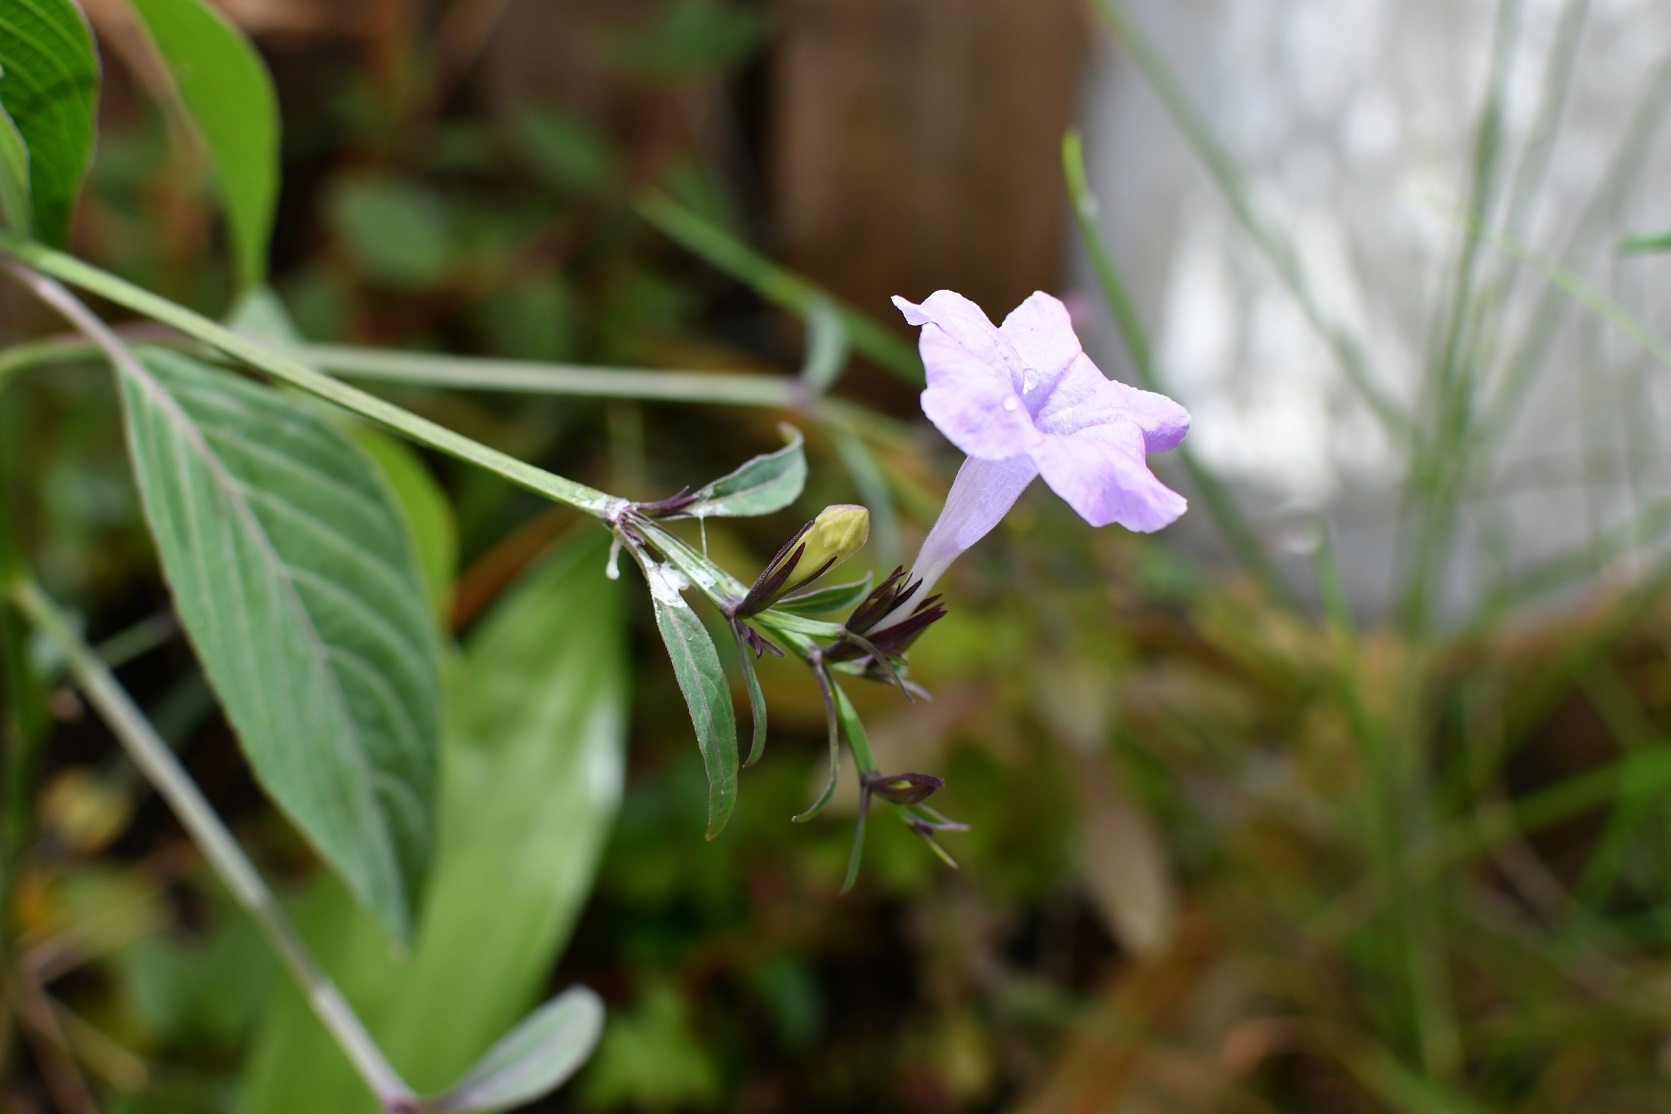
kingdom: Plantae
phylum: Tracheophyta
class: Magnoliopsida
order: Lamiales
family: Acanthaceae
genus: Ruellia
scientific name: Ruellia breedlovei
